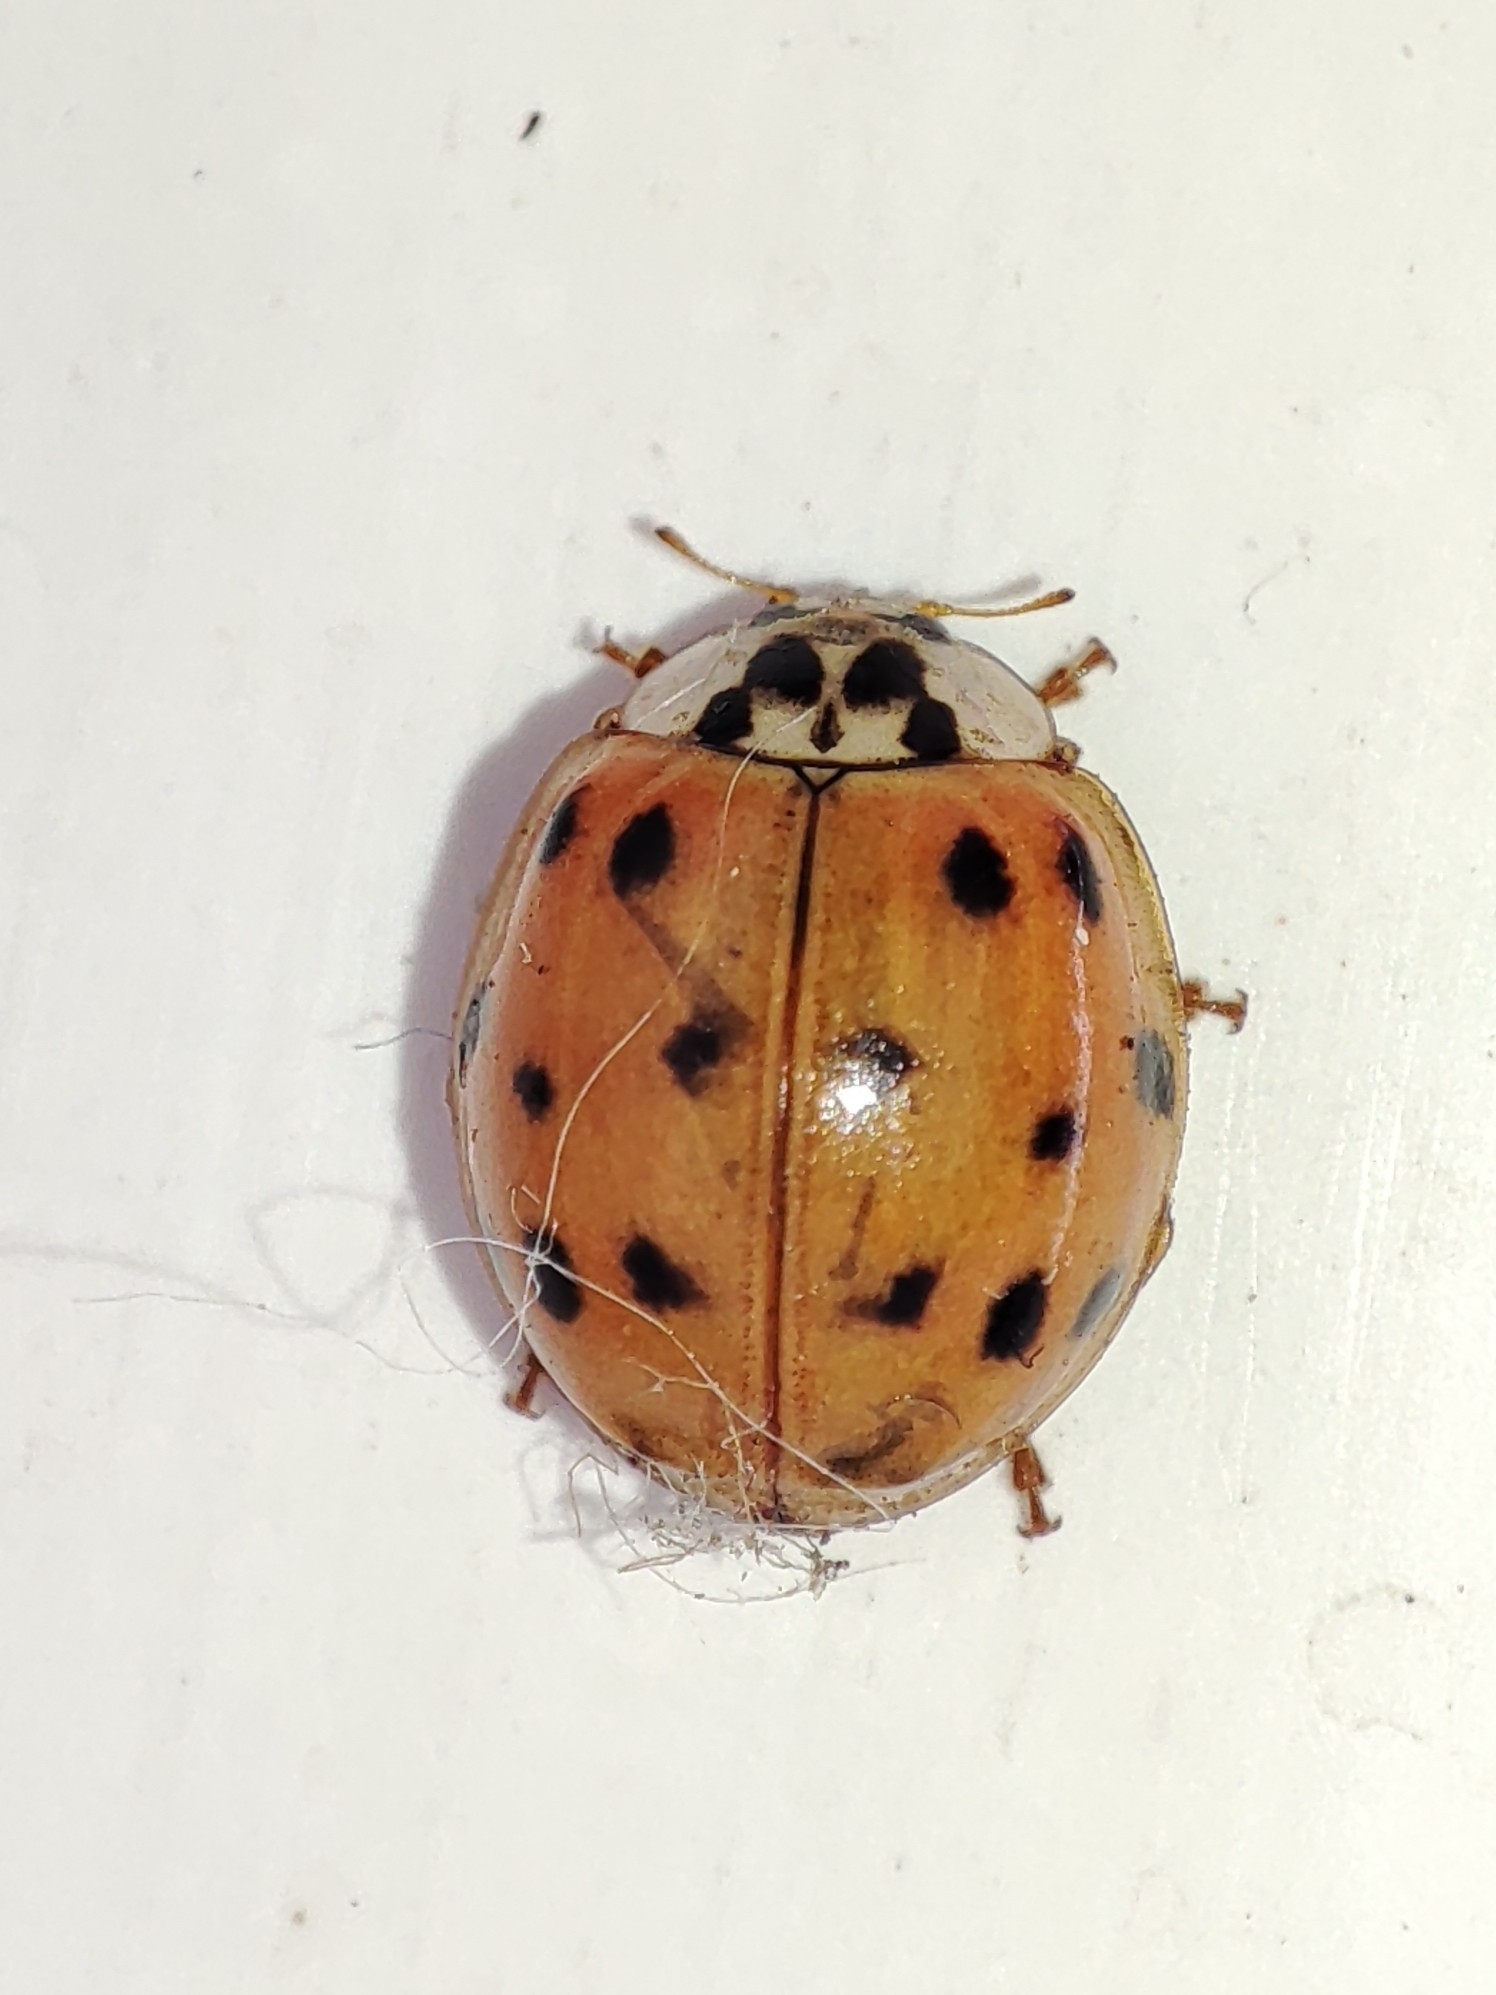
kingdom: Animalia
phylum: Arthropoda
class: Insecta
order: Coleoptera
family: Coccinellidae
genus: Harmonia
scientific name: Harmonia axyridis
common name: Harlequin ladybird
